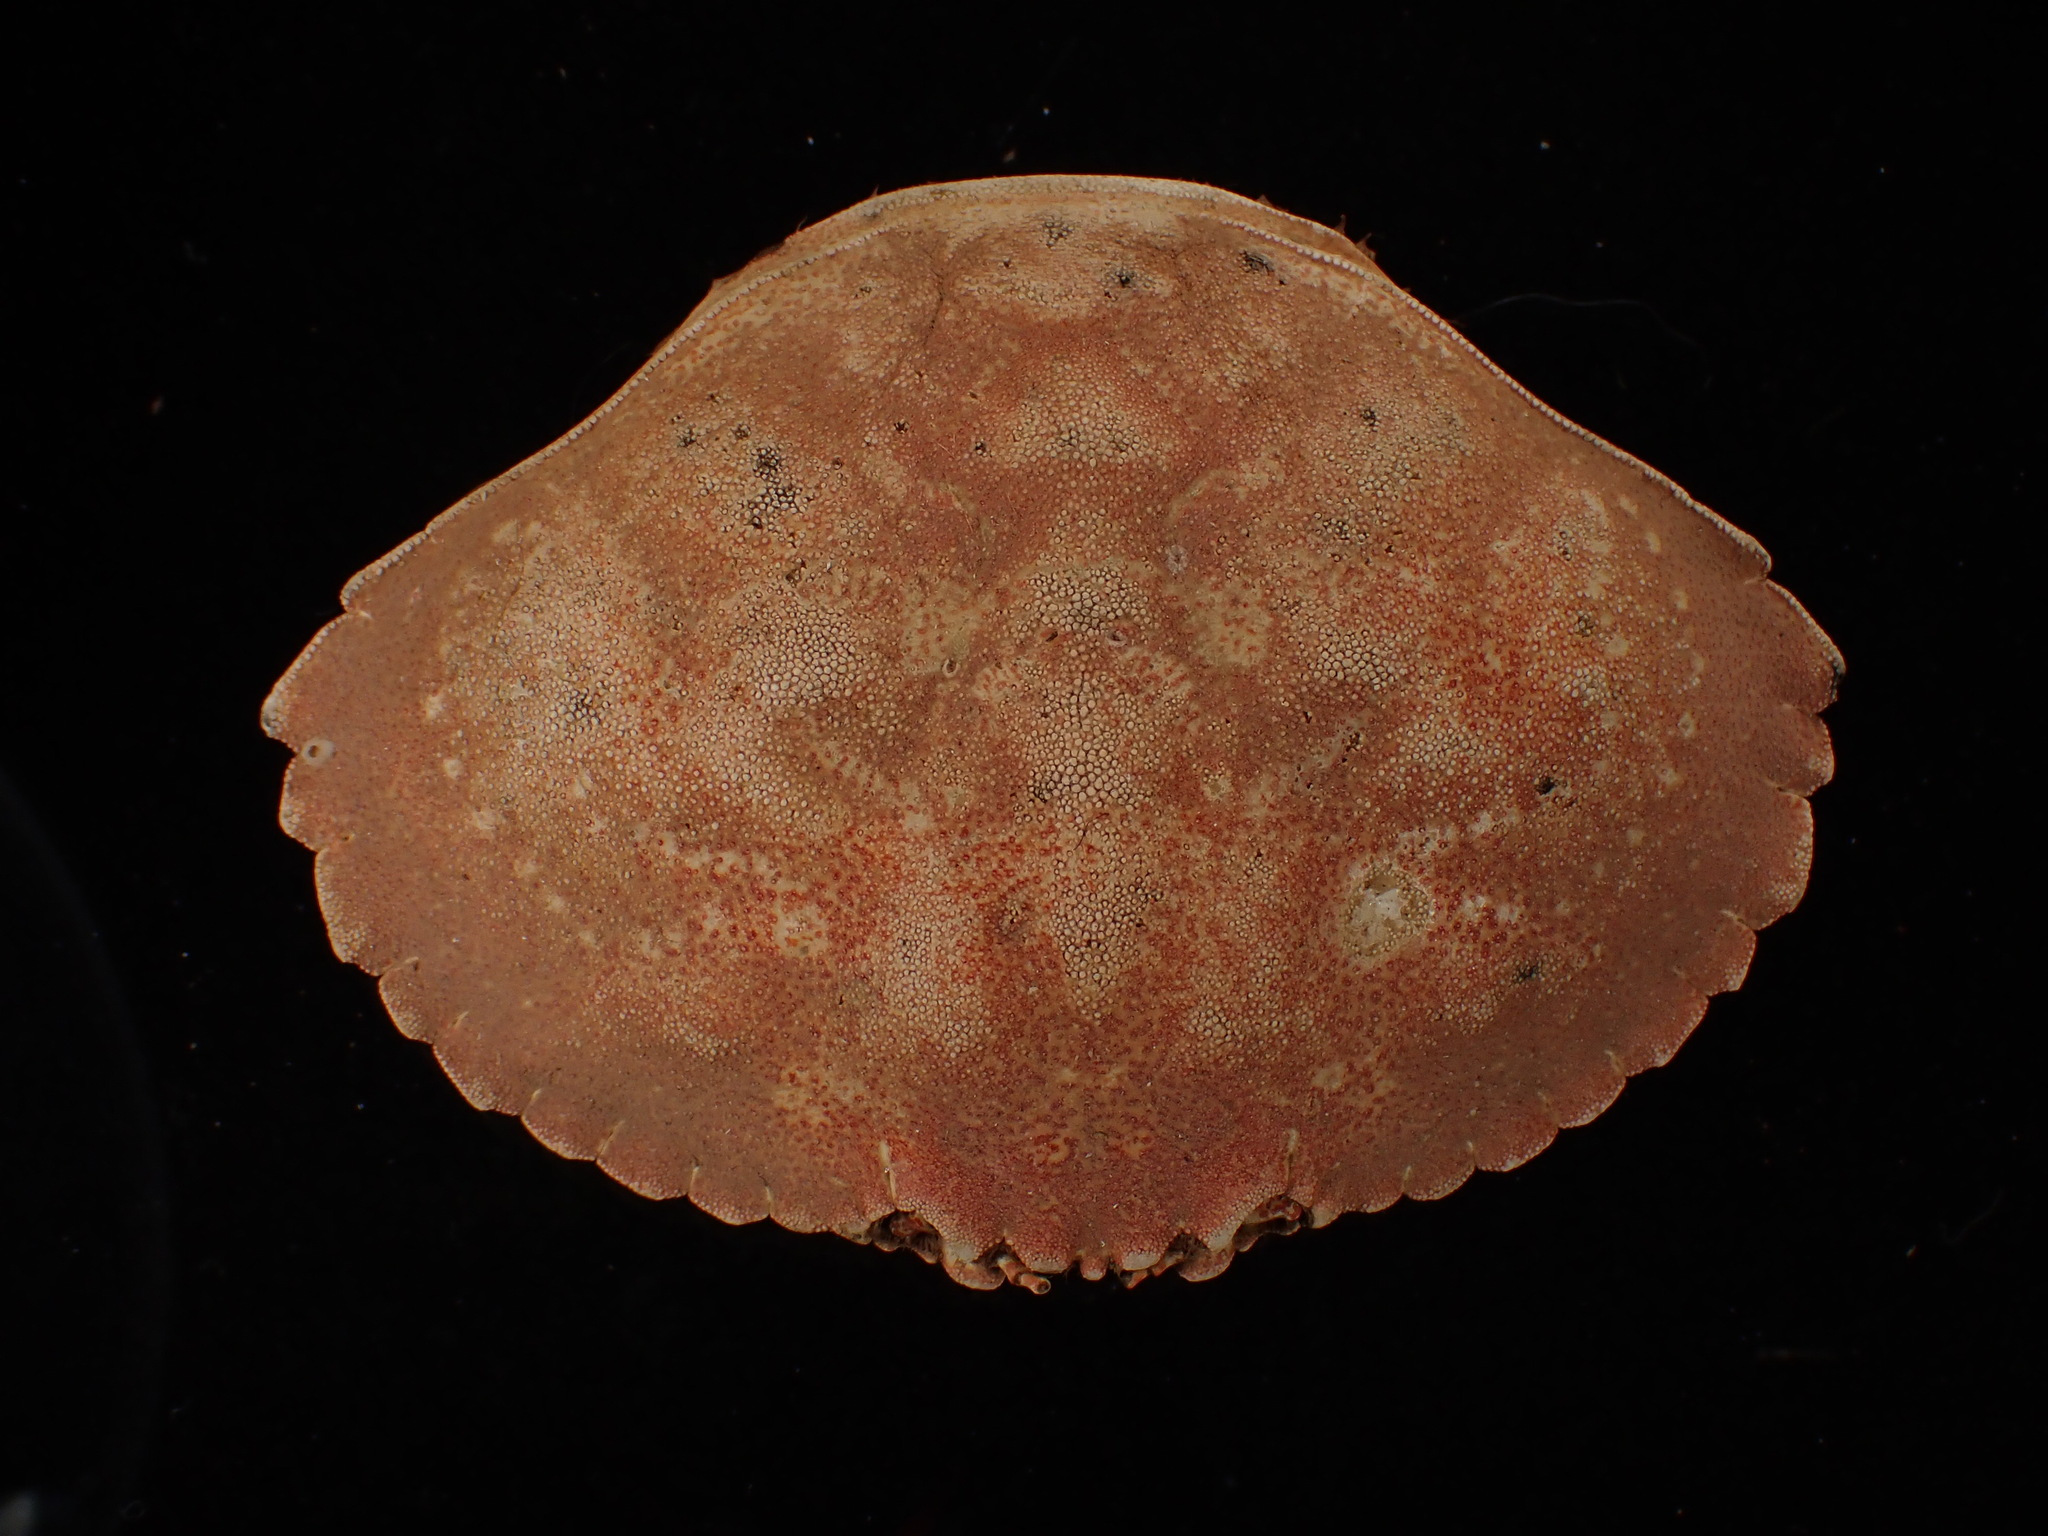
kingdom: Animalia
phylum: Arthropoda
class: Malacostraca
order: Decapoda
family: Cancridae
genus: Cancer
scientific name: Cancer irroratus
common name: Atlantic rock crab
